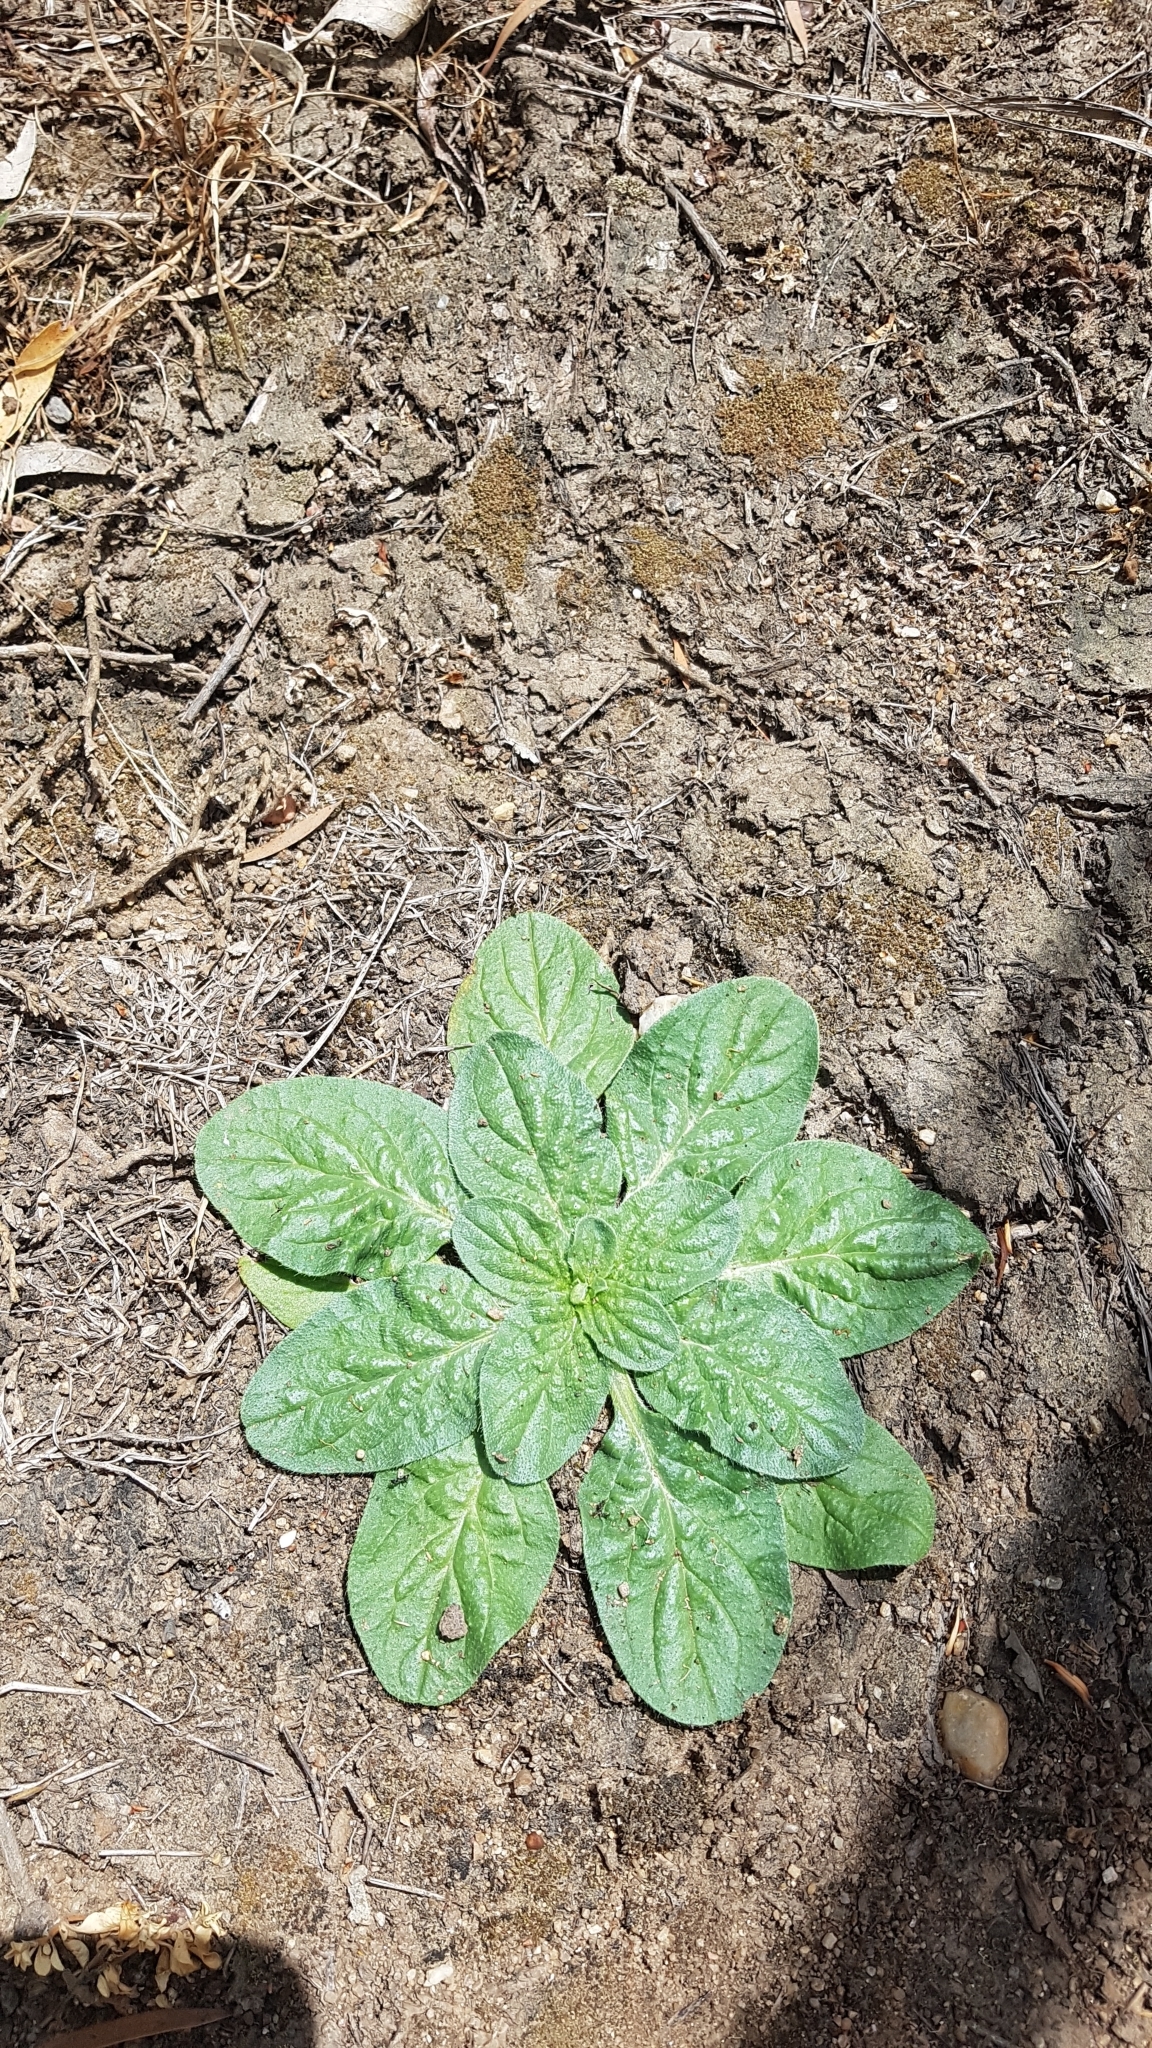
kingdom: Plantae
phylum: Tracheophyta
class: Magnoliopsida
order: Boraginales
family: Boraginaceae
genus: Echium
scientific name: Echium plantagineum
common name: Purple viper's-bugloss
